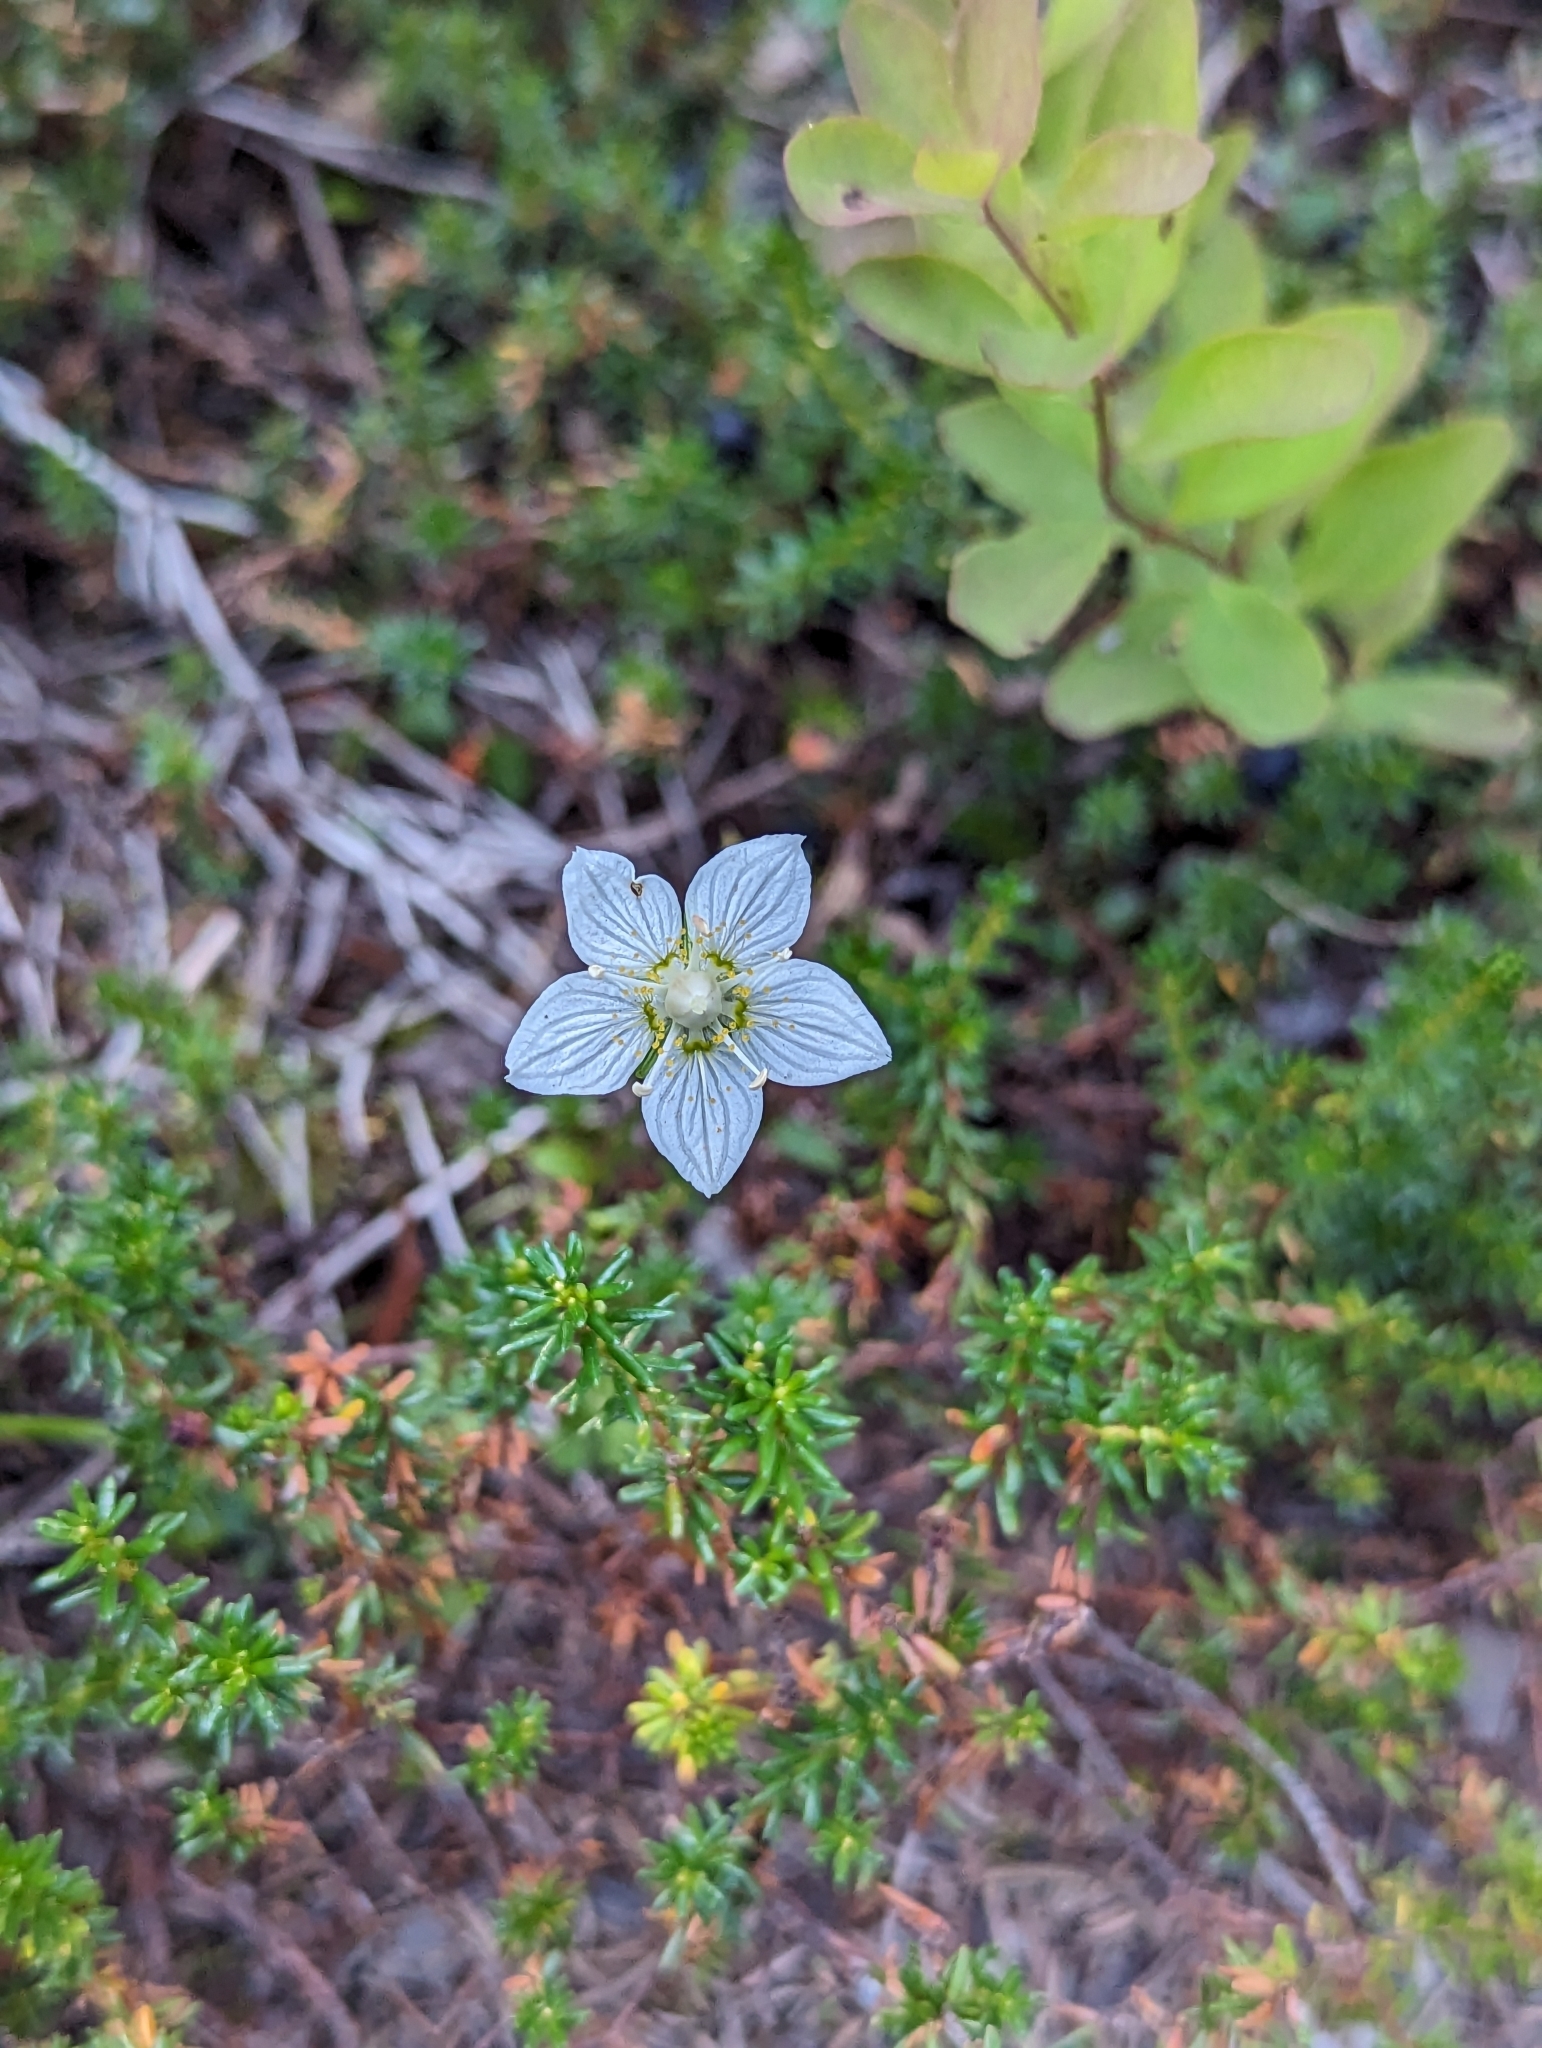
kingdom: Plantae
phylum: Tracheophyta
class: Magnoliopsida
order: Celastrales
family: Parnassiaceae
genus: Parnassia
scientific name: Parnassia palustris
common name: Grass-of-parnassus
